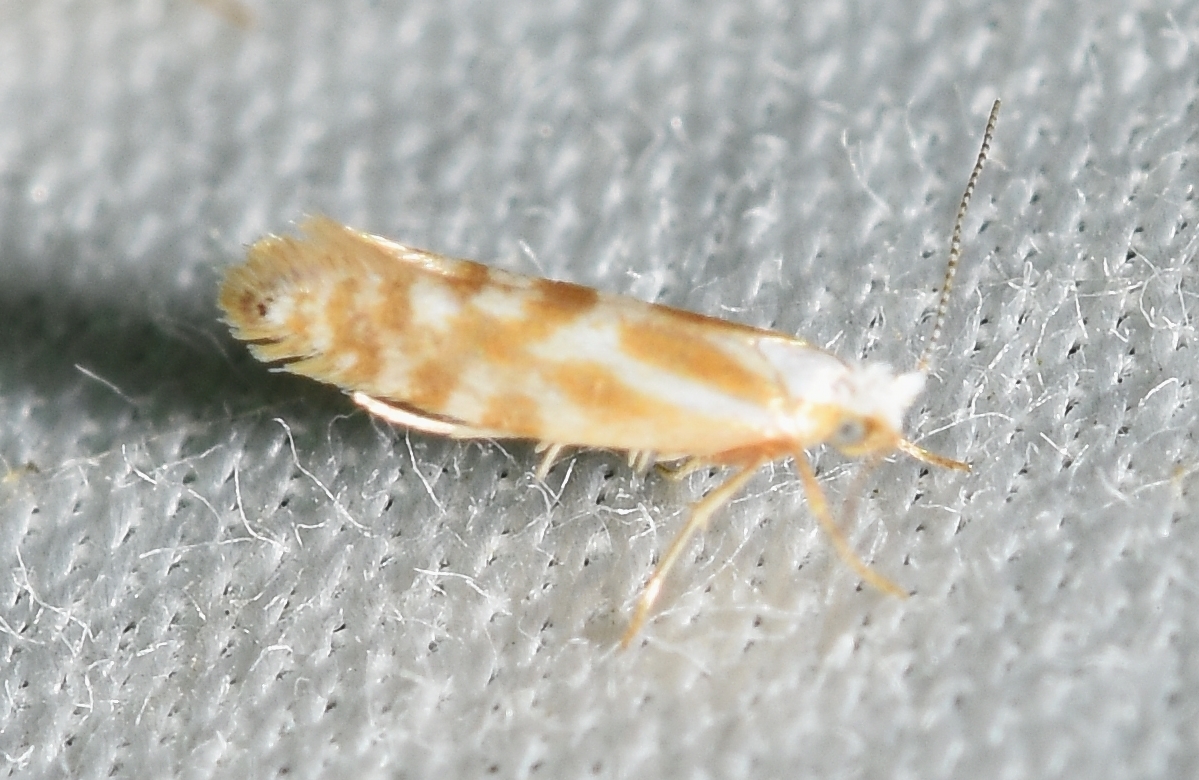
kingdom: Animalia
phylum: Arthropoda
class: Insecta
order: Lepidoptera
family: Argyresthiidae
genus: Argyresthia
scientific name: Argyresthia freyella
